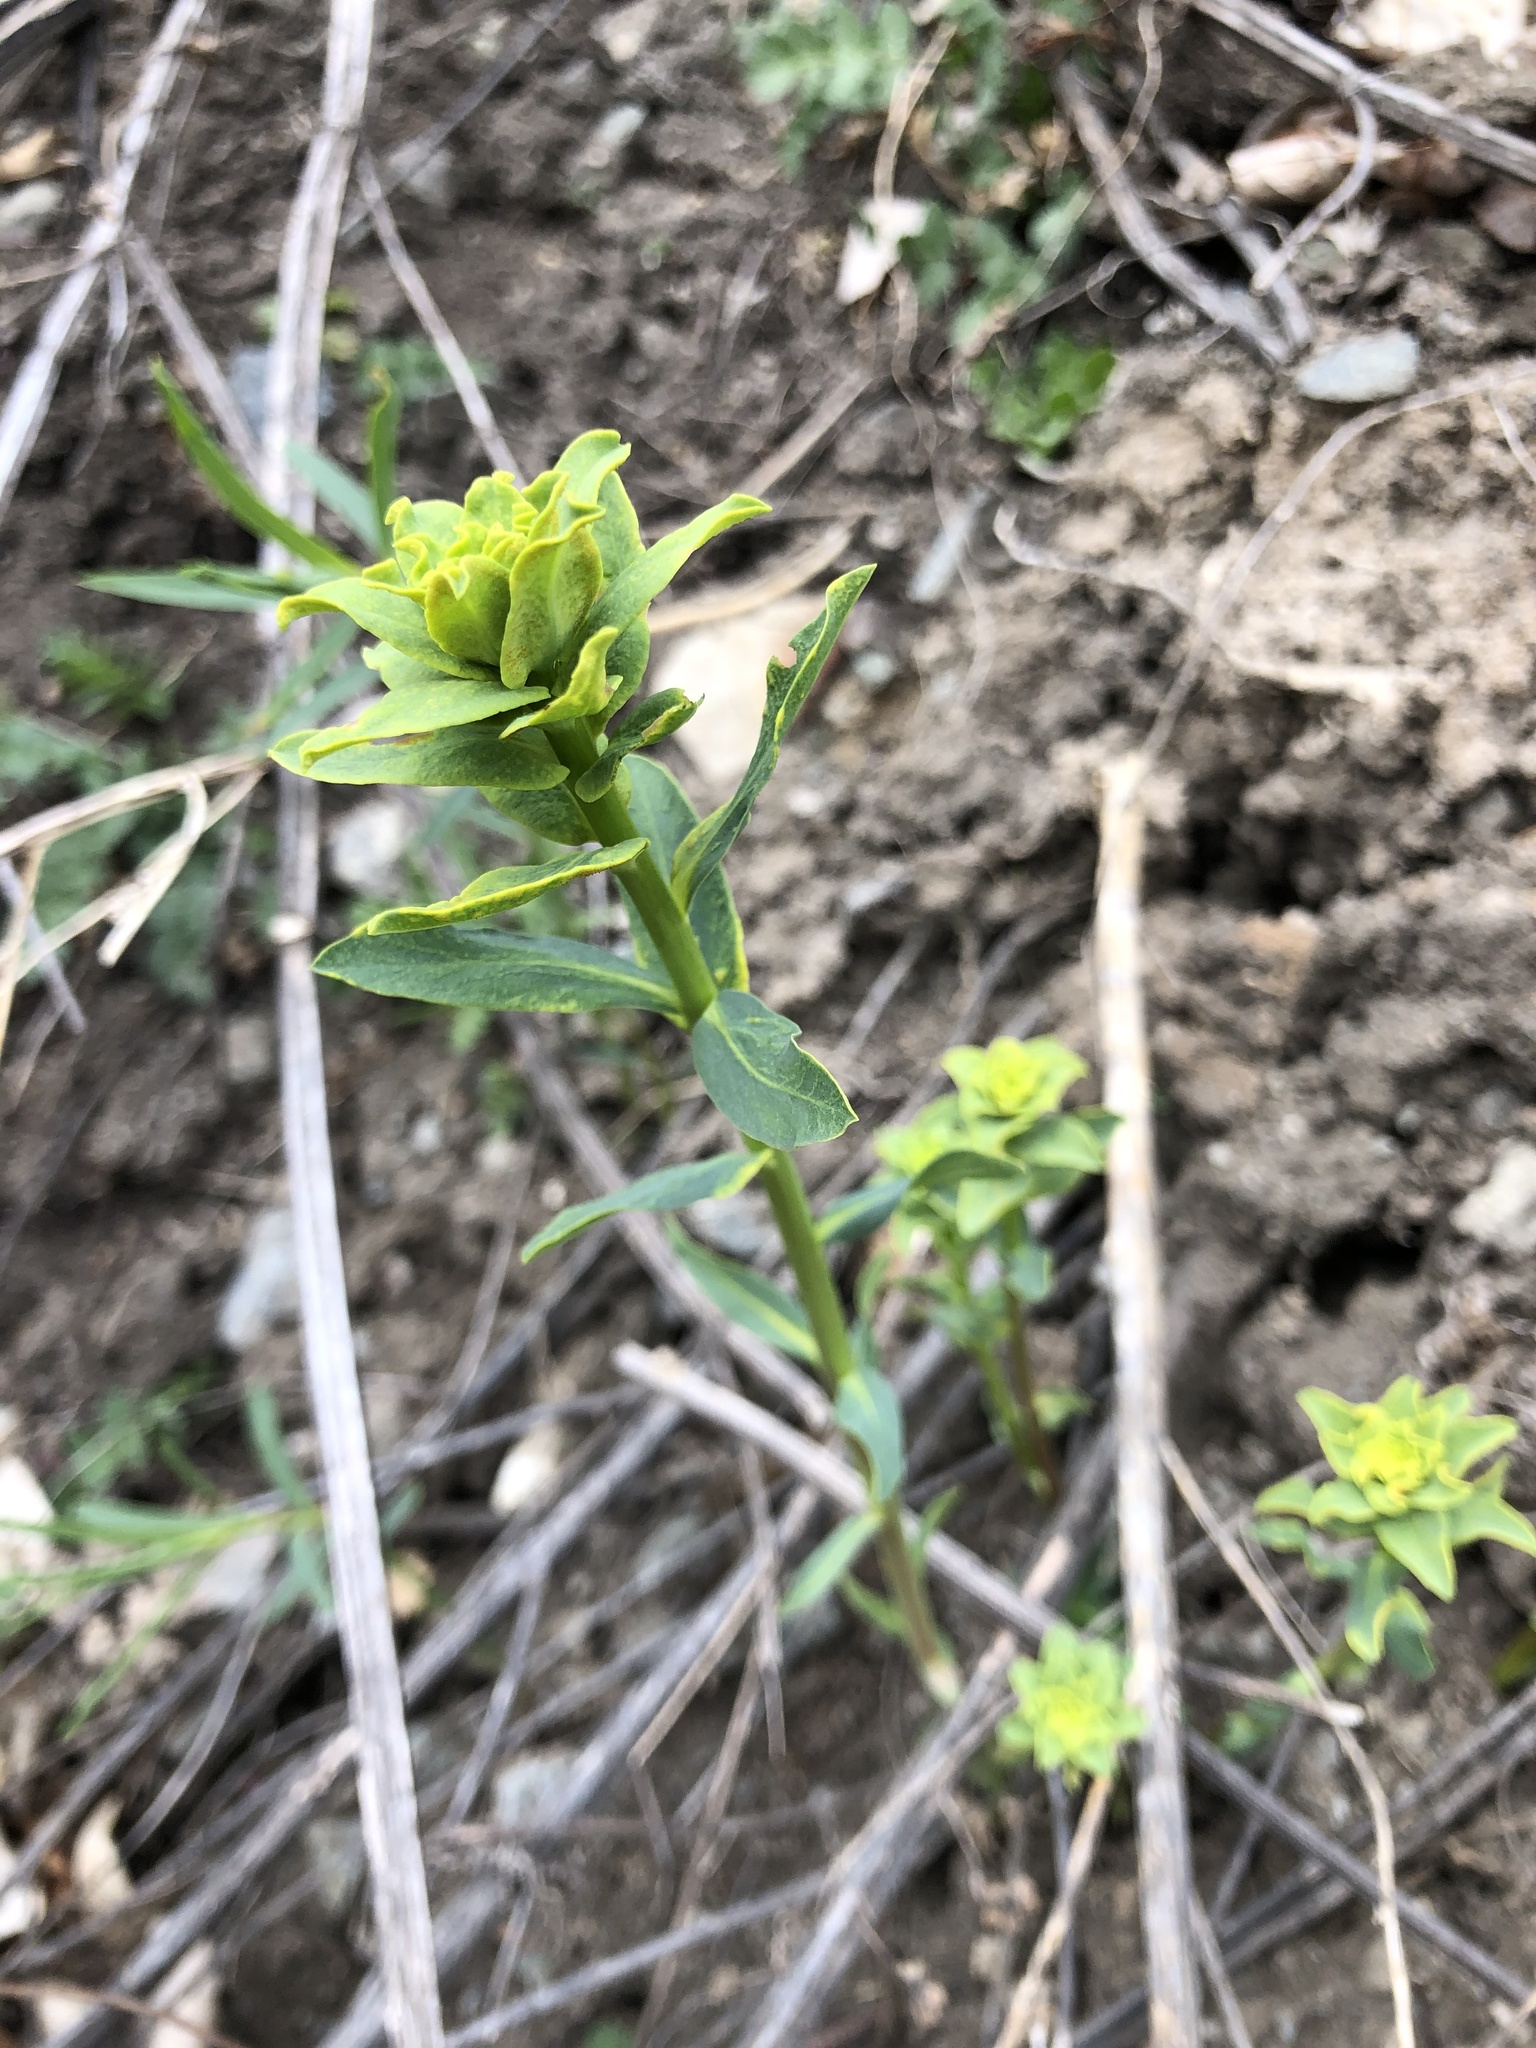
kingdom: Plantae
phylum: Tracheophyta
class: Magnoliopsida
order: Malpighiales
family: Euphorbiaceae
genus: Euphorbia
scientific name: Euphorbia virgata
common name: Leafy spurge
